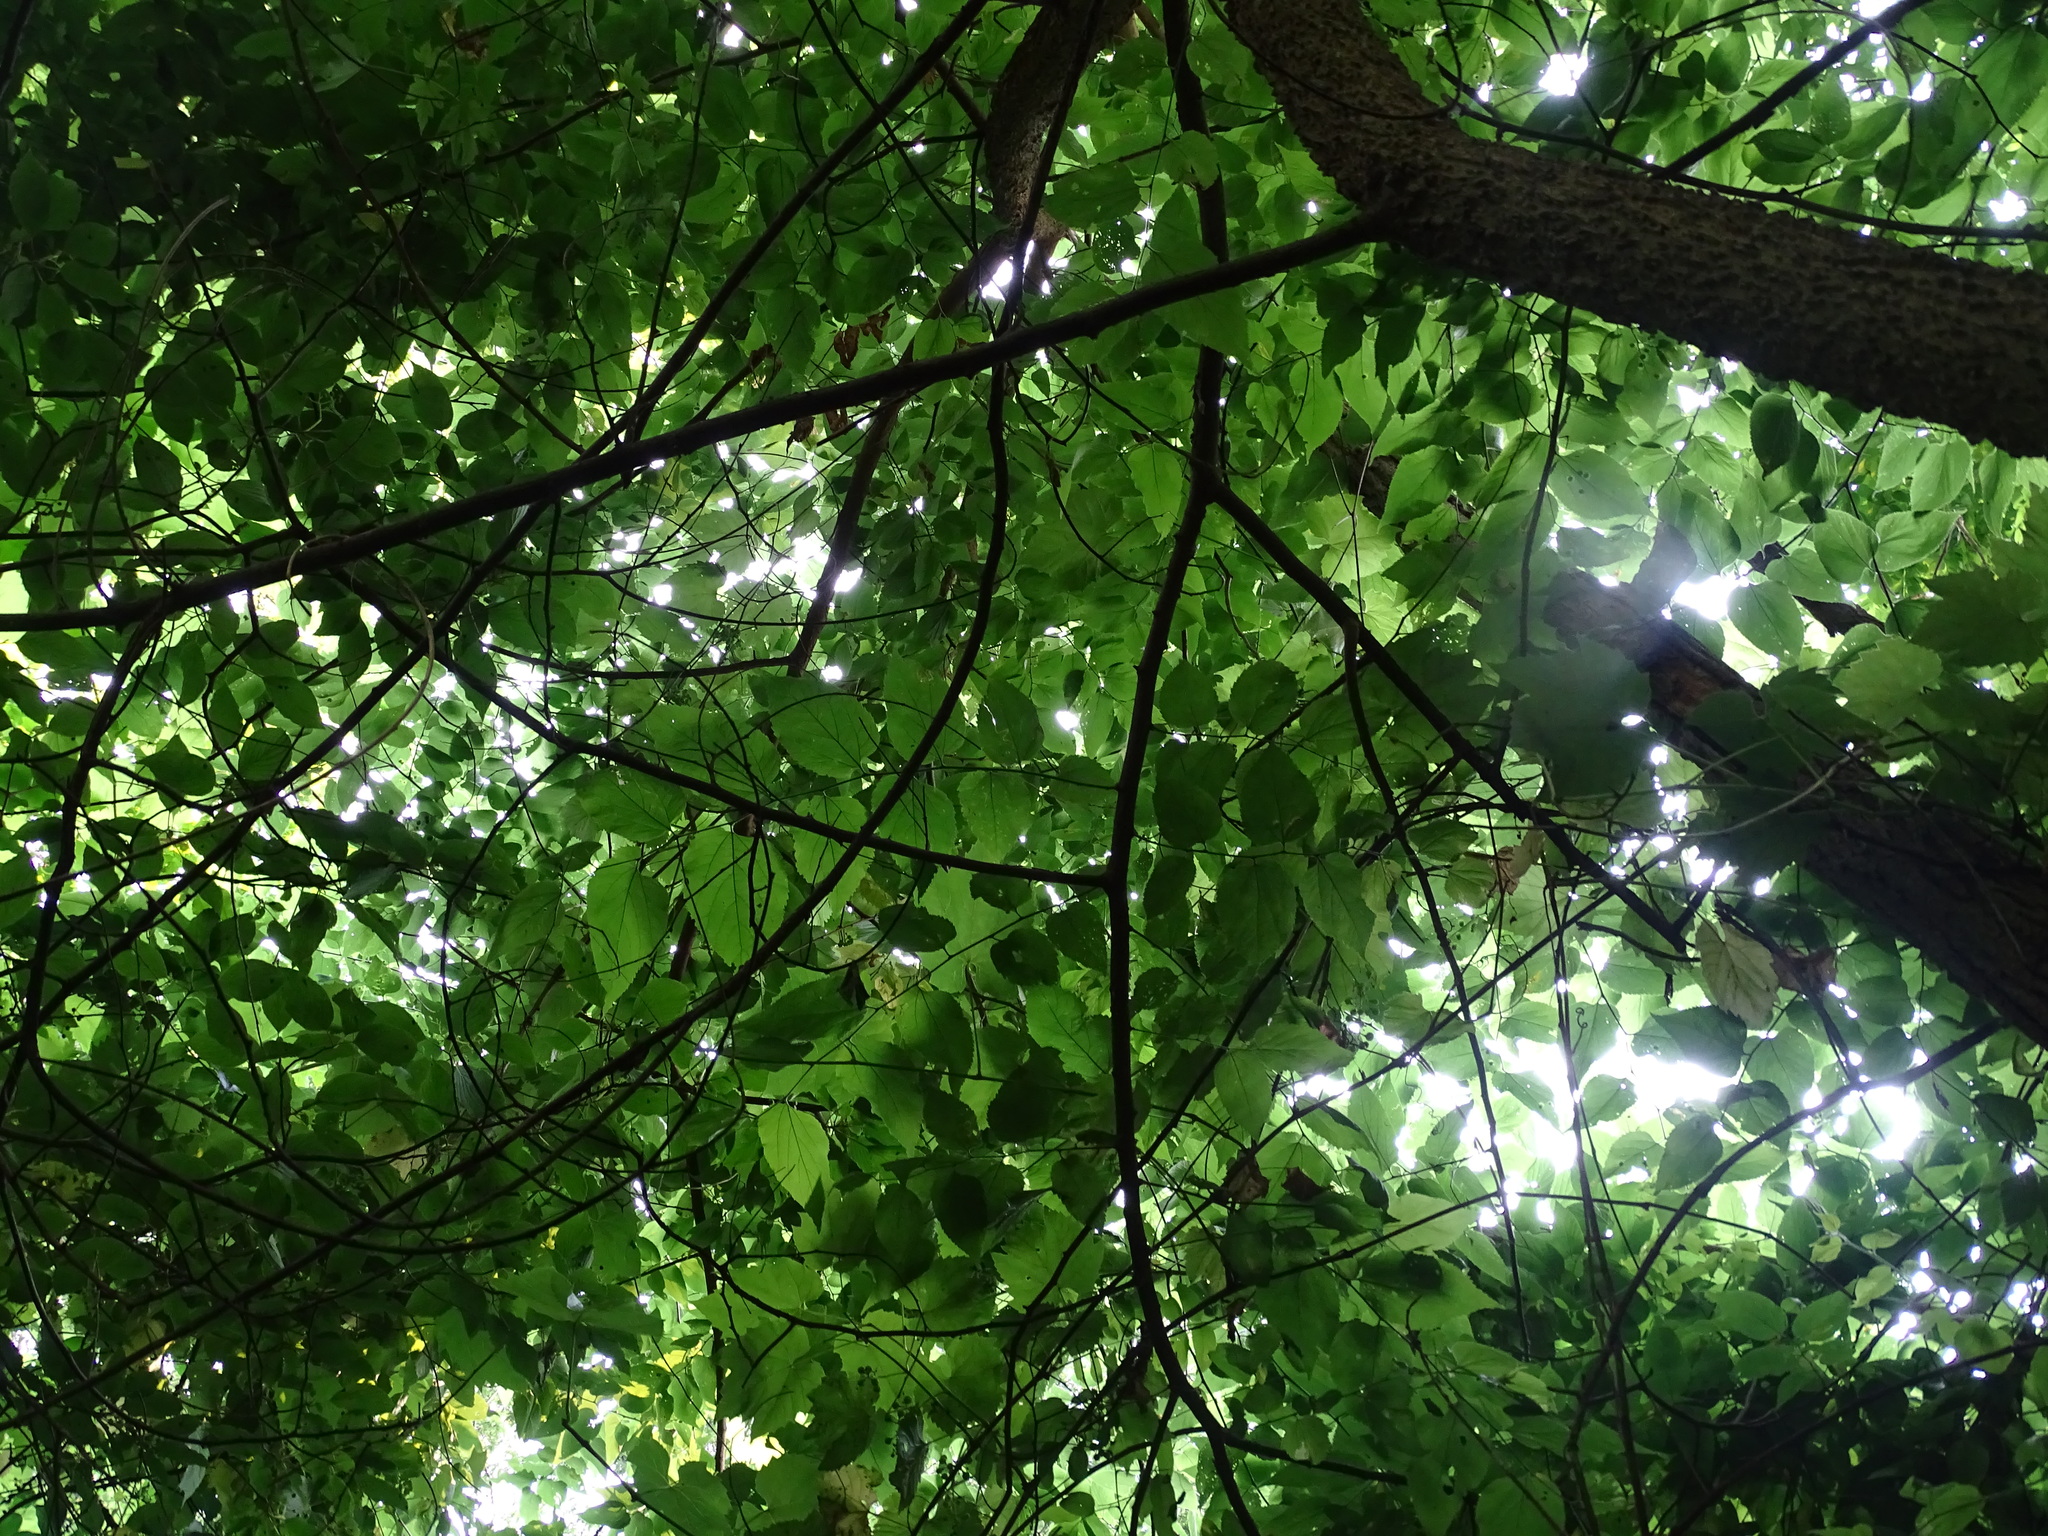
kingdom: Plantae
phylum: Tracheophyta
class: Magnoliopsida
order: Rosales
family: Cannabaceae
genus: Celtis
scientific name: Celtis occidentalis
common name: Common hackberry
